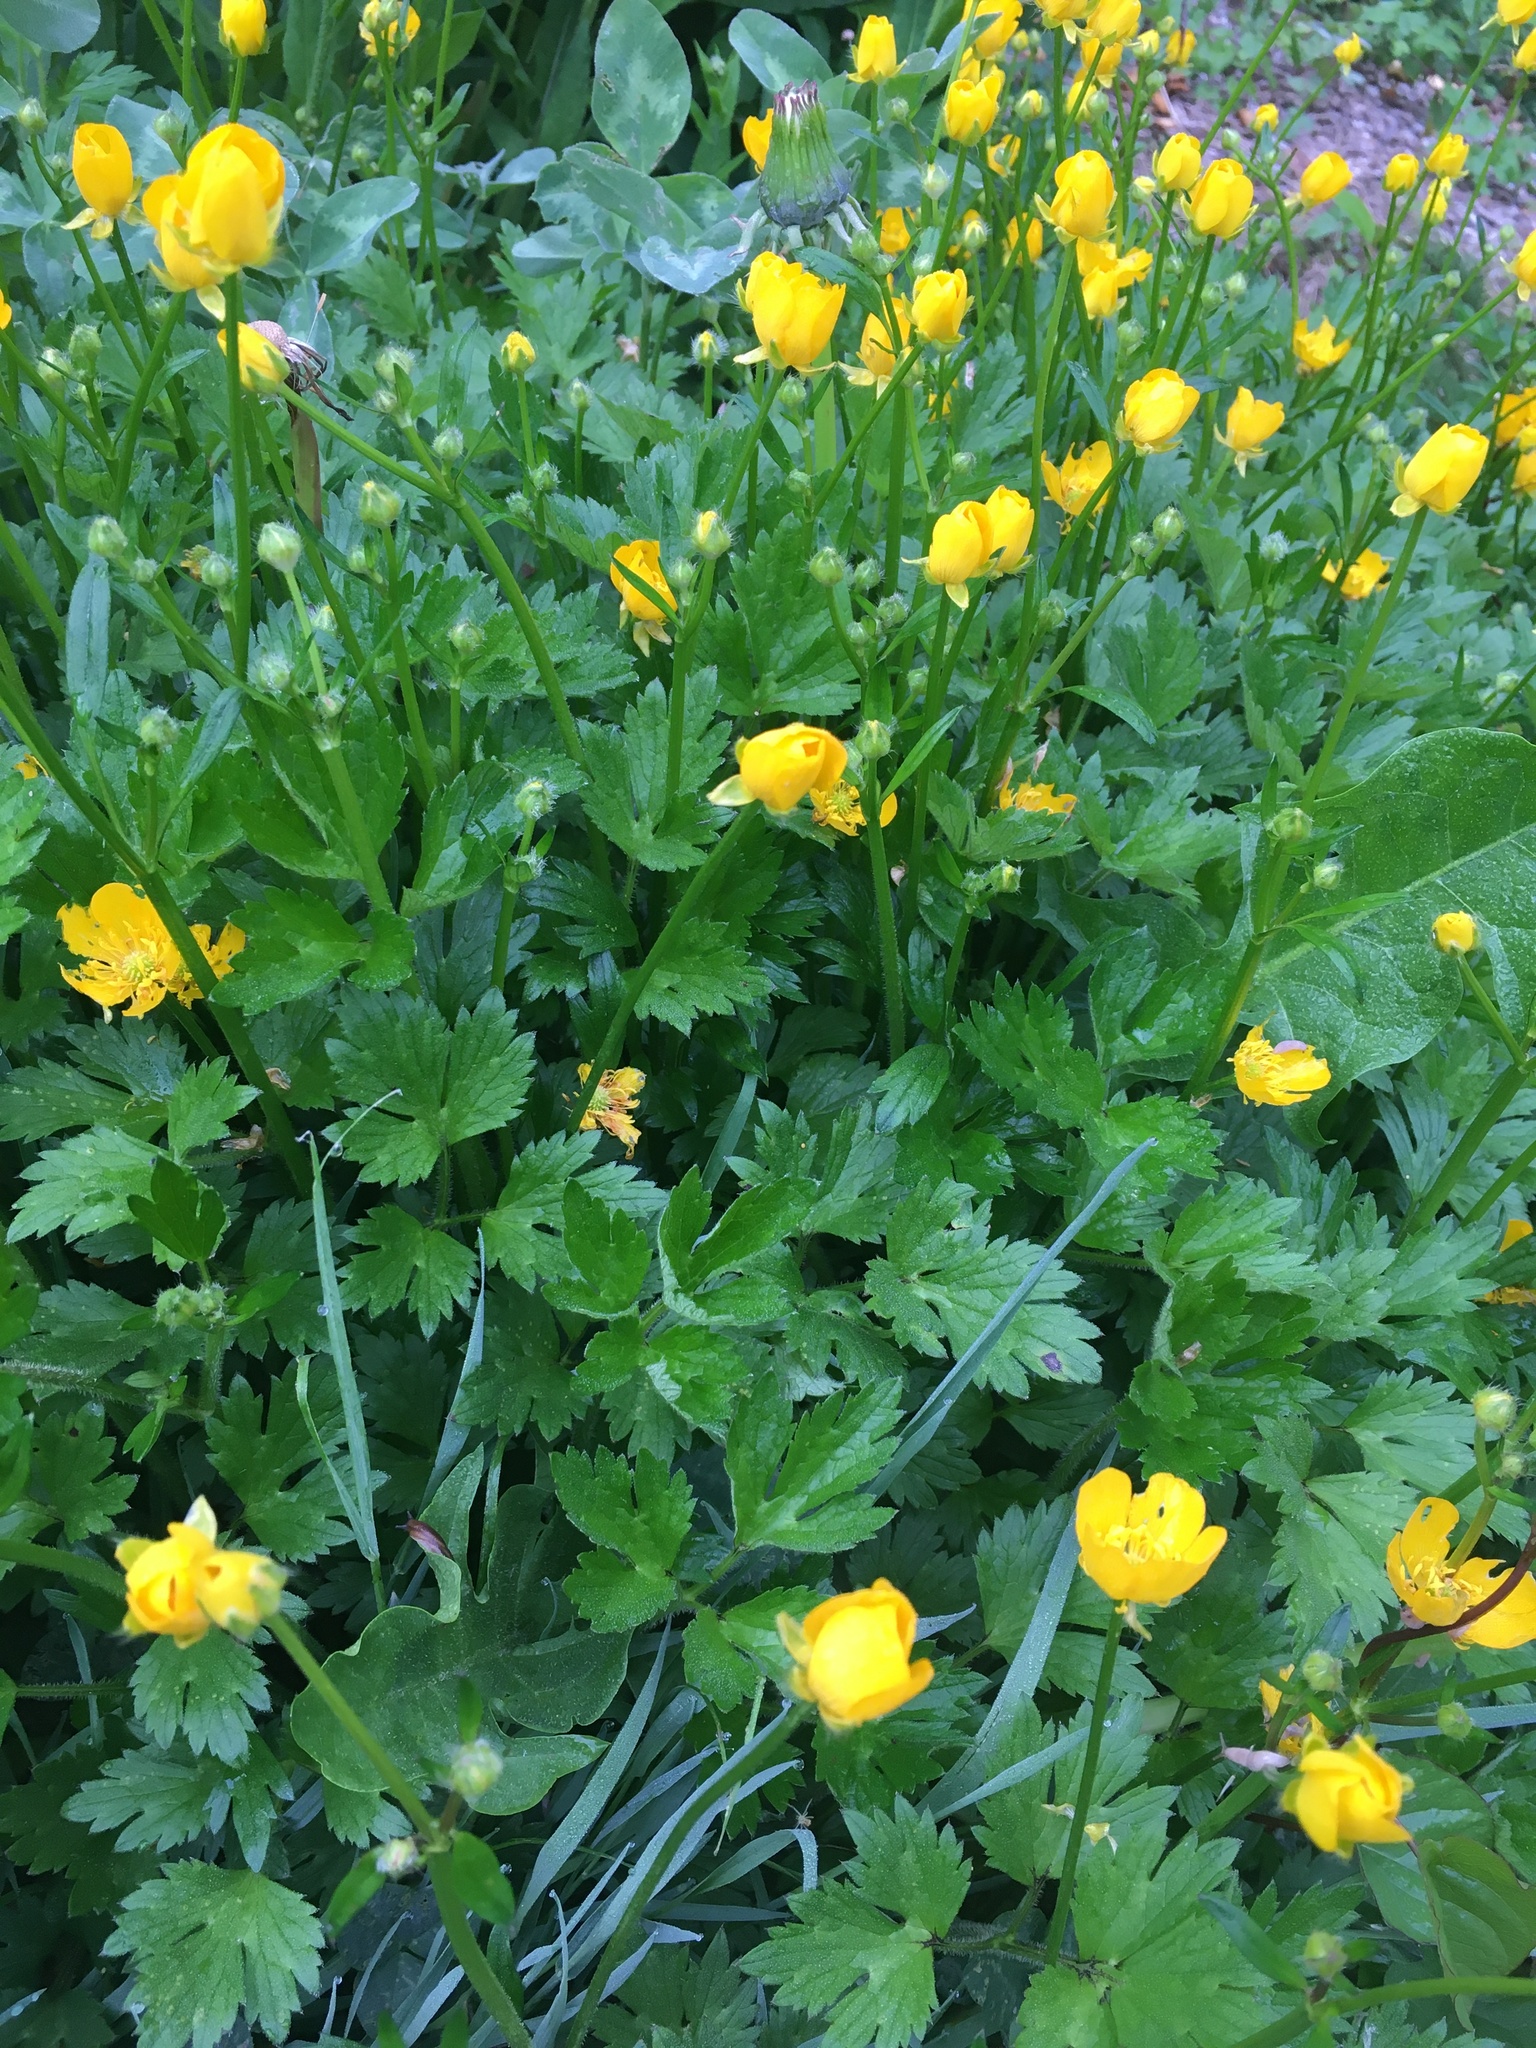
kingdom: Plantae
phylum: Tracheophyta
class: Magnoliopsida
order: Ranunculales
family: Ranunculaceae
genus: Ranunculus
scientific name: Ranunculus repens
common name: Creeping buttercup
